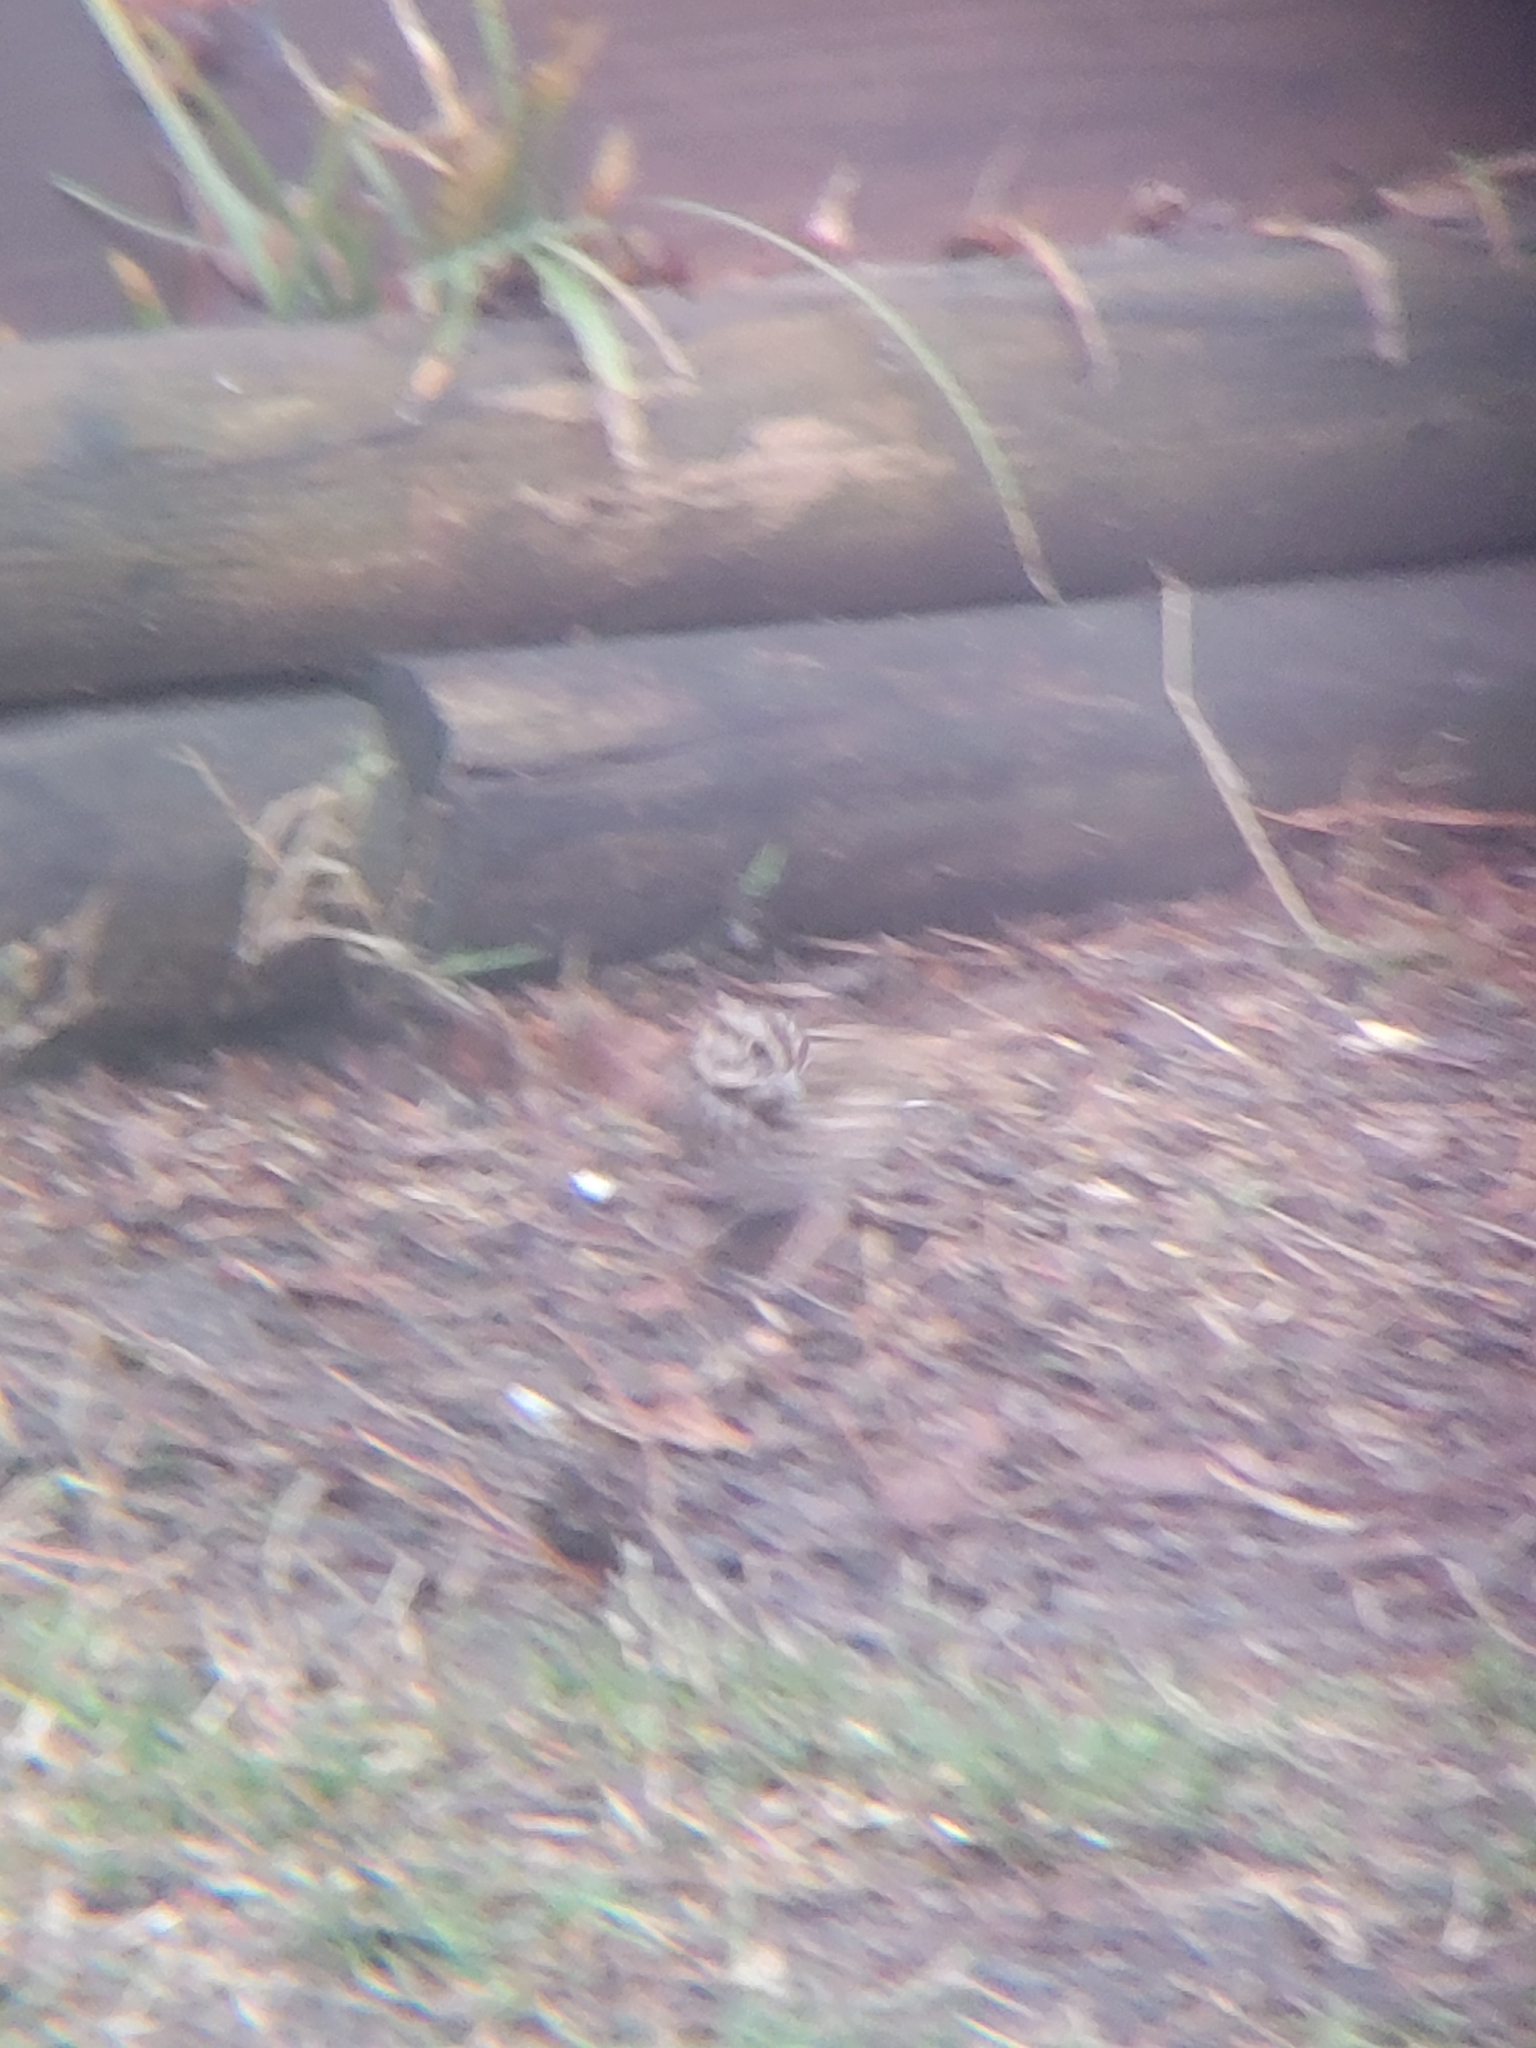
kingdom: Animalia
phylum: Chordata
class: Aves
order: Passeriformes
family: Passerellidae
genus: Melospiza
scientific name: Melospiza melodia
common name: Song sparrow
